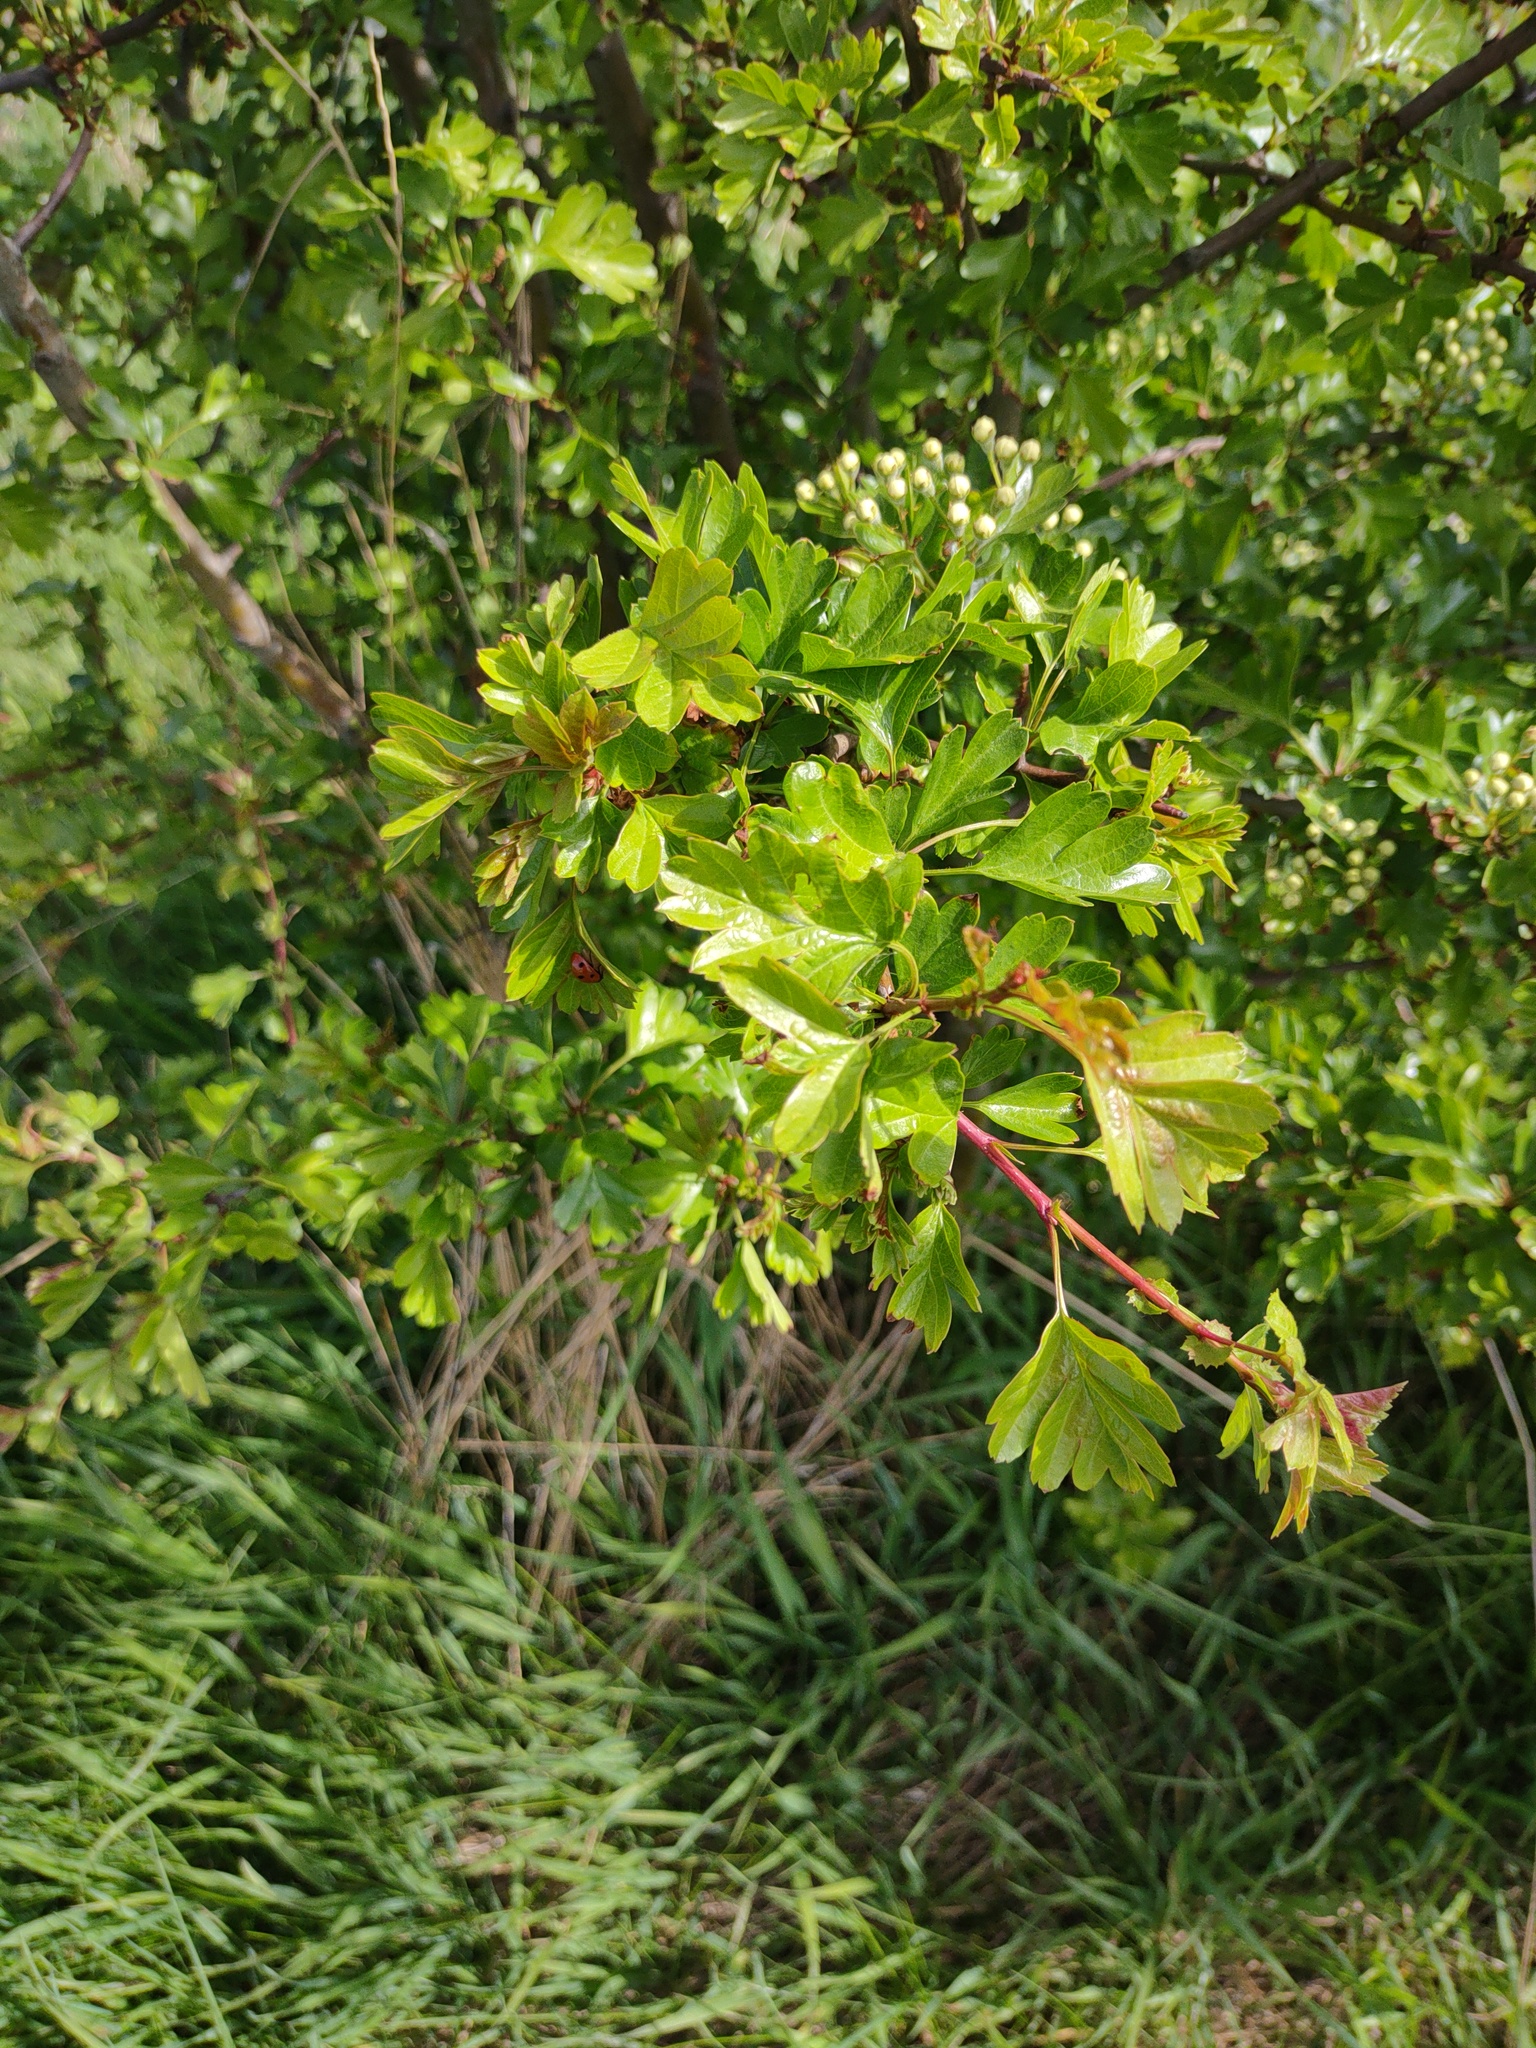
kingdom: Plantae
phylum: Tracheophyta
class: Magnoliopsida
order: Rosales
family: Rosaceae
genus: Crataegus
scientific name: Crataegus monogyna
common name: Hawthorn
